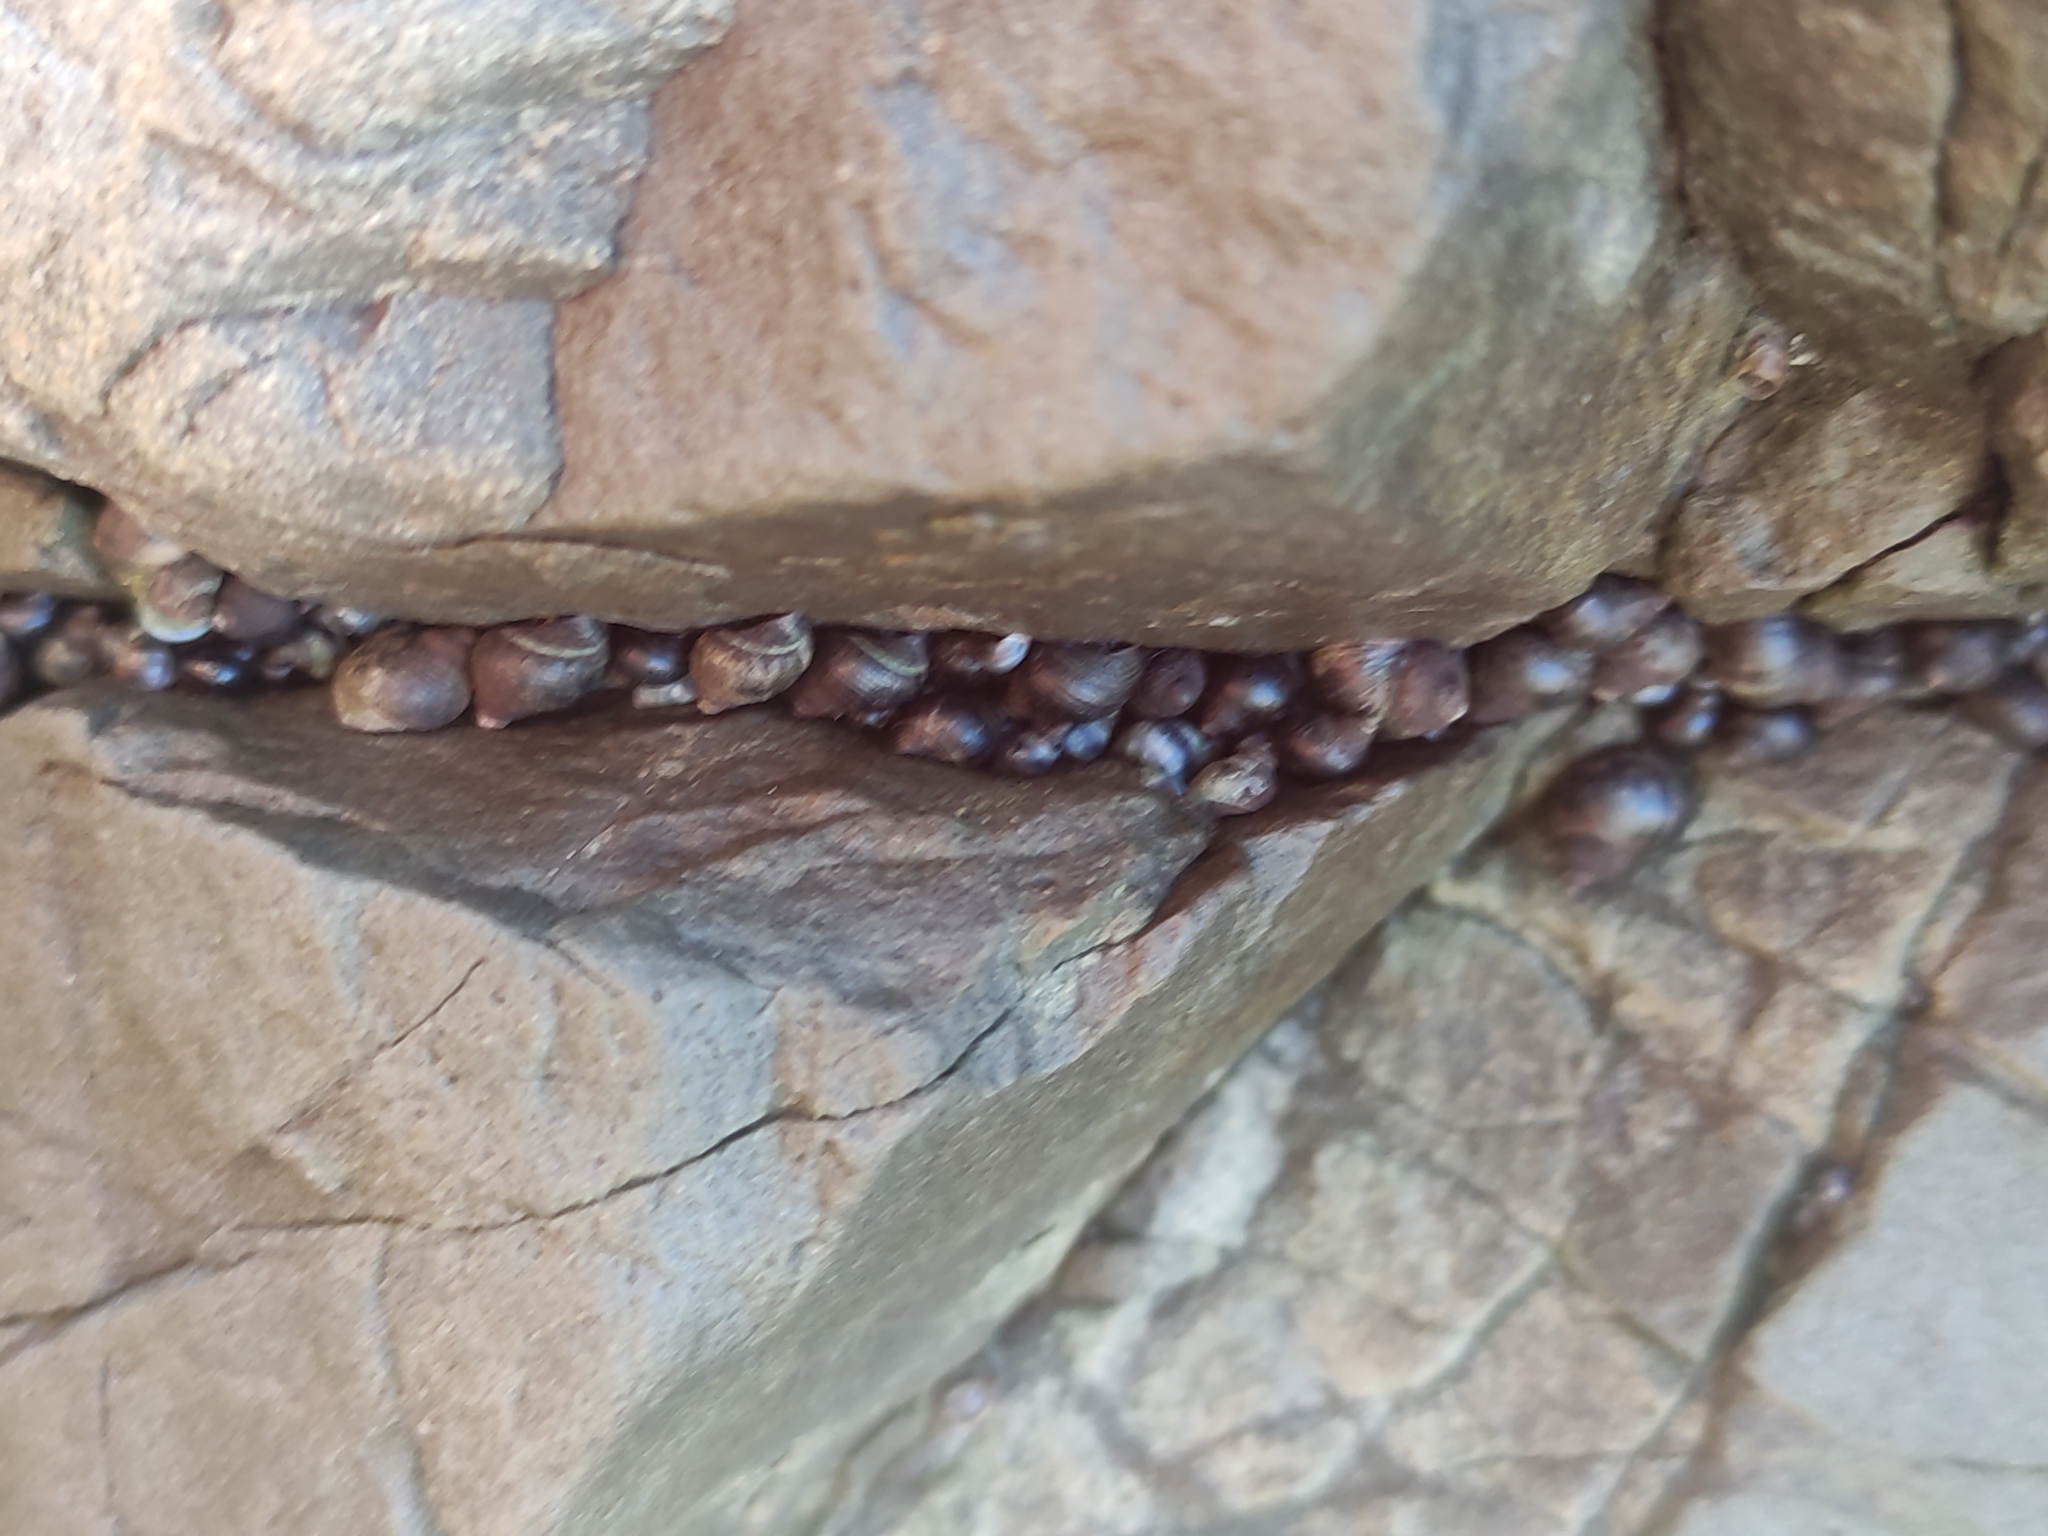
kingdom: Animalia
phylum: Mollusca
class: Gastropoda
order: Littorinimorpha
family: Littorinidae
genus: Austrolittorina
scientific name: Austrolittorina cincta
